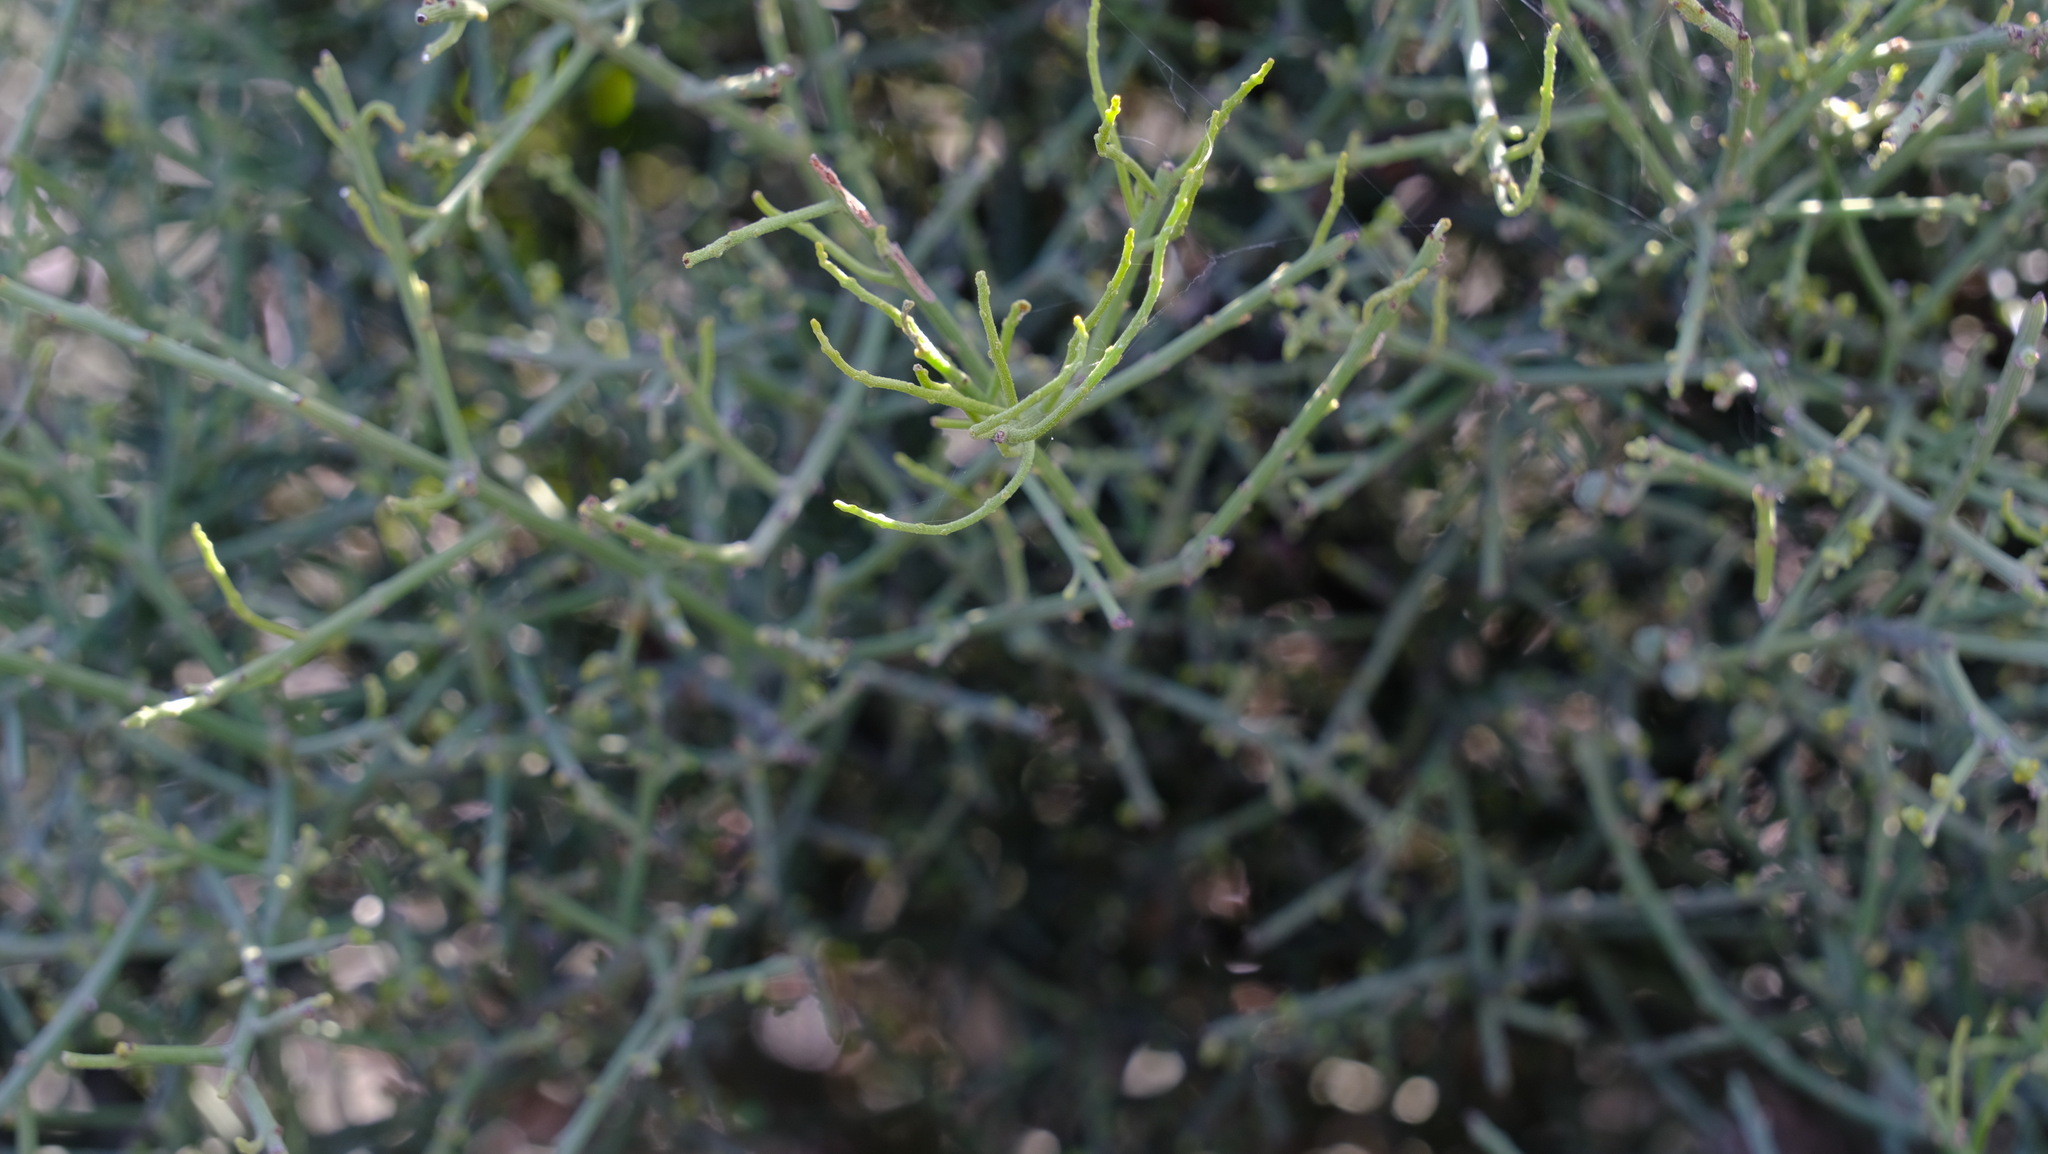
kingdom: Plantae
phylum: Tracheophyta
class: Magnoliopsida
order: Santalales
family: Santalaceae
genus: Exocarpos
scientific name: Exocarpos aphyllus
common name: Leafless ballart
